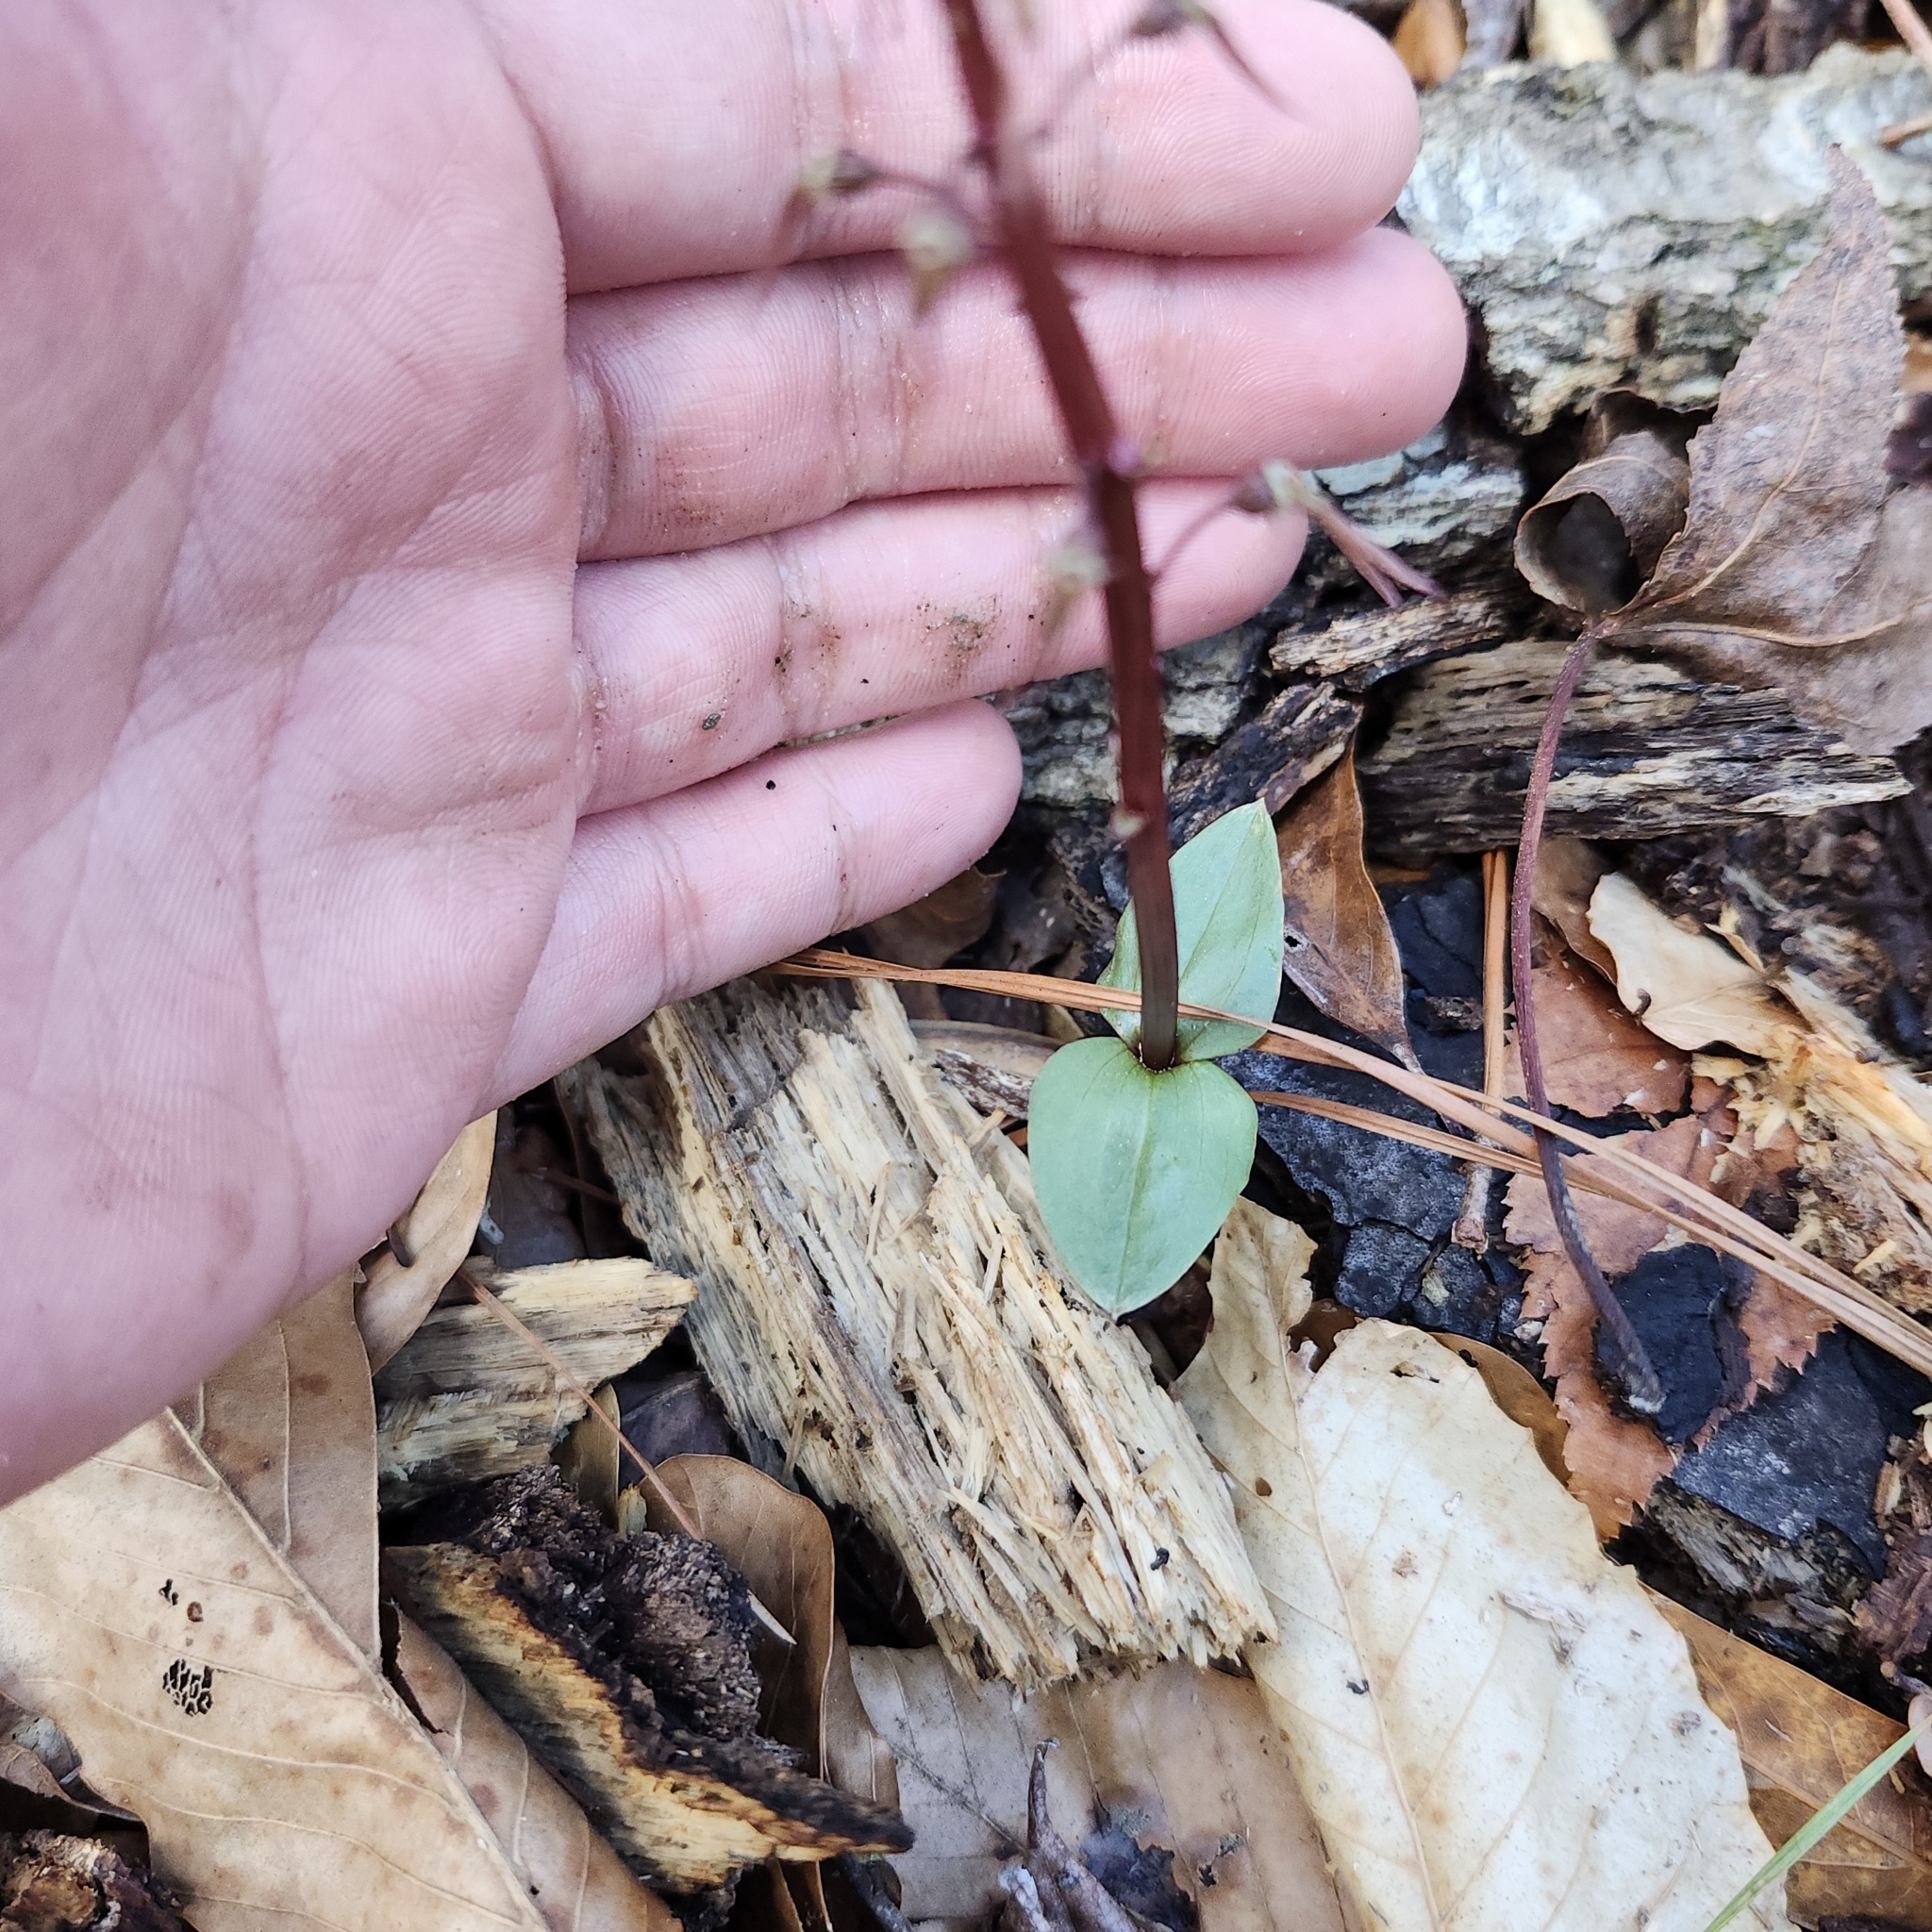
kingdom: Plantae
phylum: Tracheophyta
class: Liliopsida
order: Asparagales
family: Orchidaceae
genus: Neottia
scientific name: Neottia bifolia
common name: Southern twayblade
